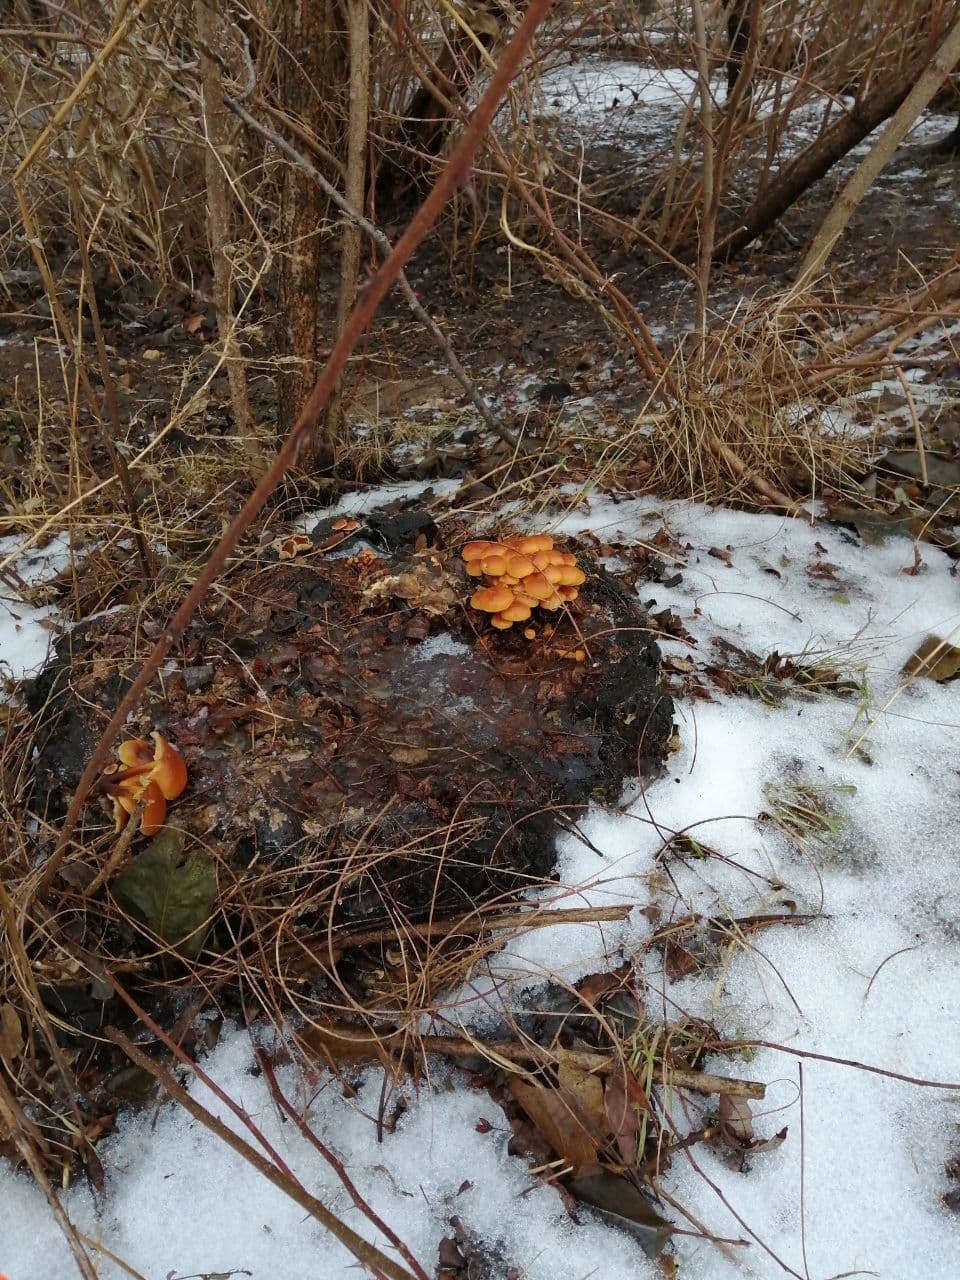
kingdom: Fungi
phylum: Basidiomycota
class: Agaricomycetes
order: Agaricales
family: Physalacriaceae
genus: Flammulina
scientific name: Flammulina
